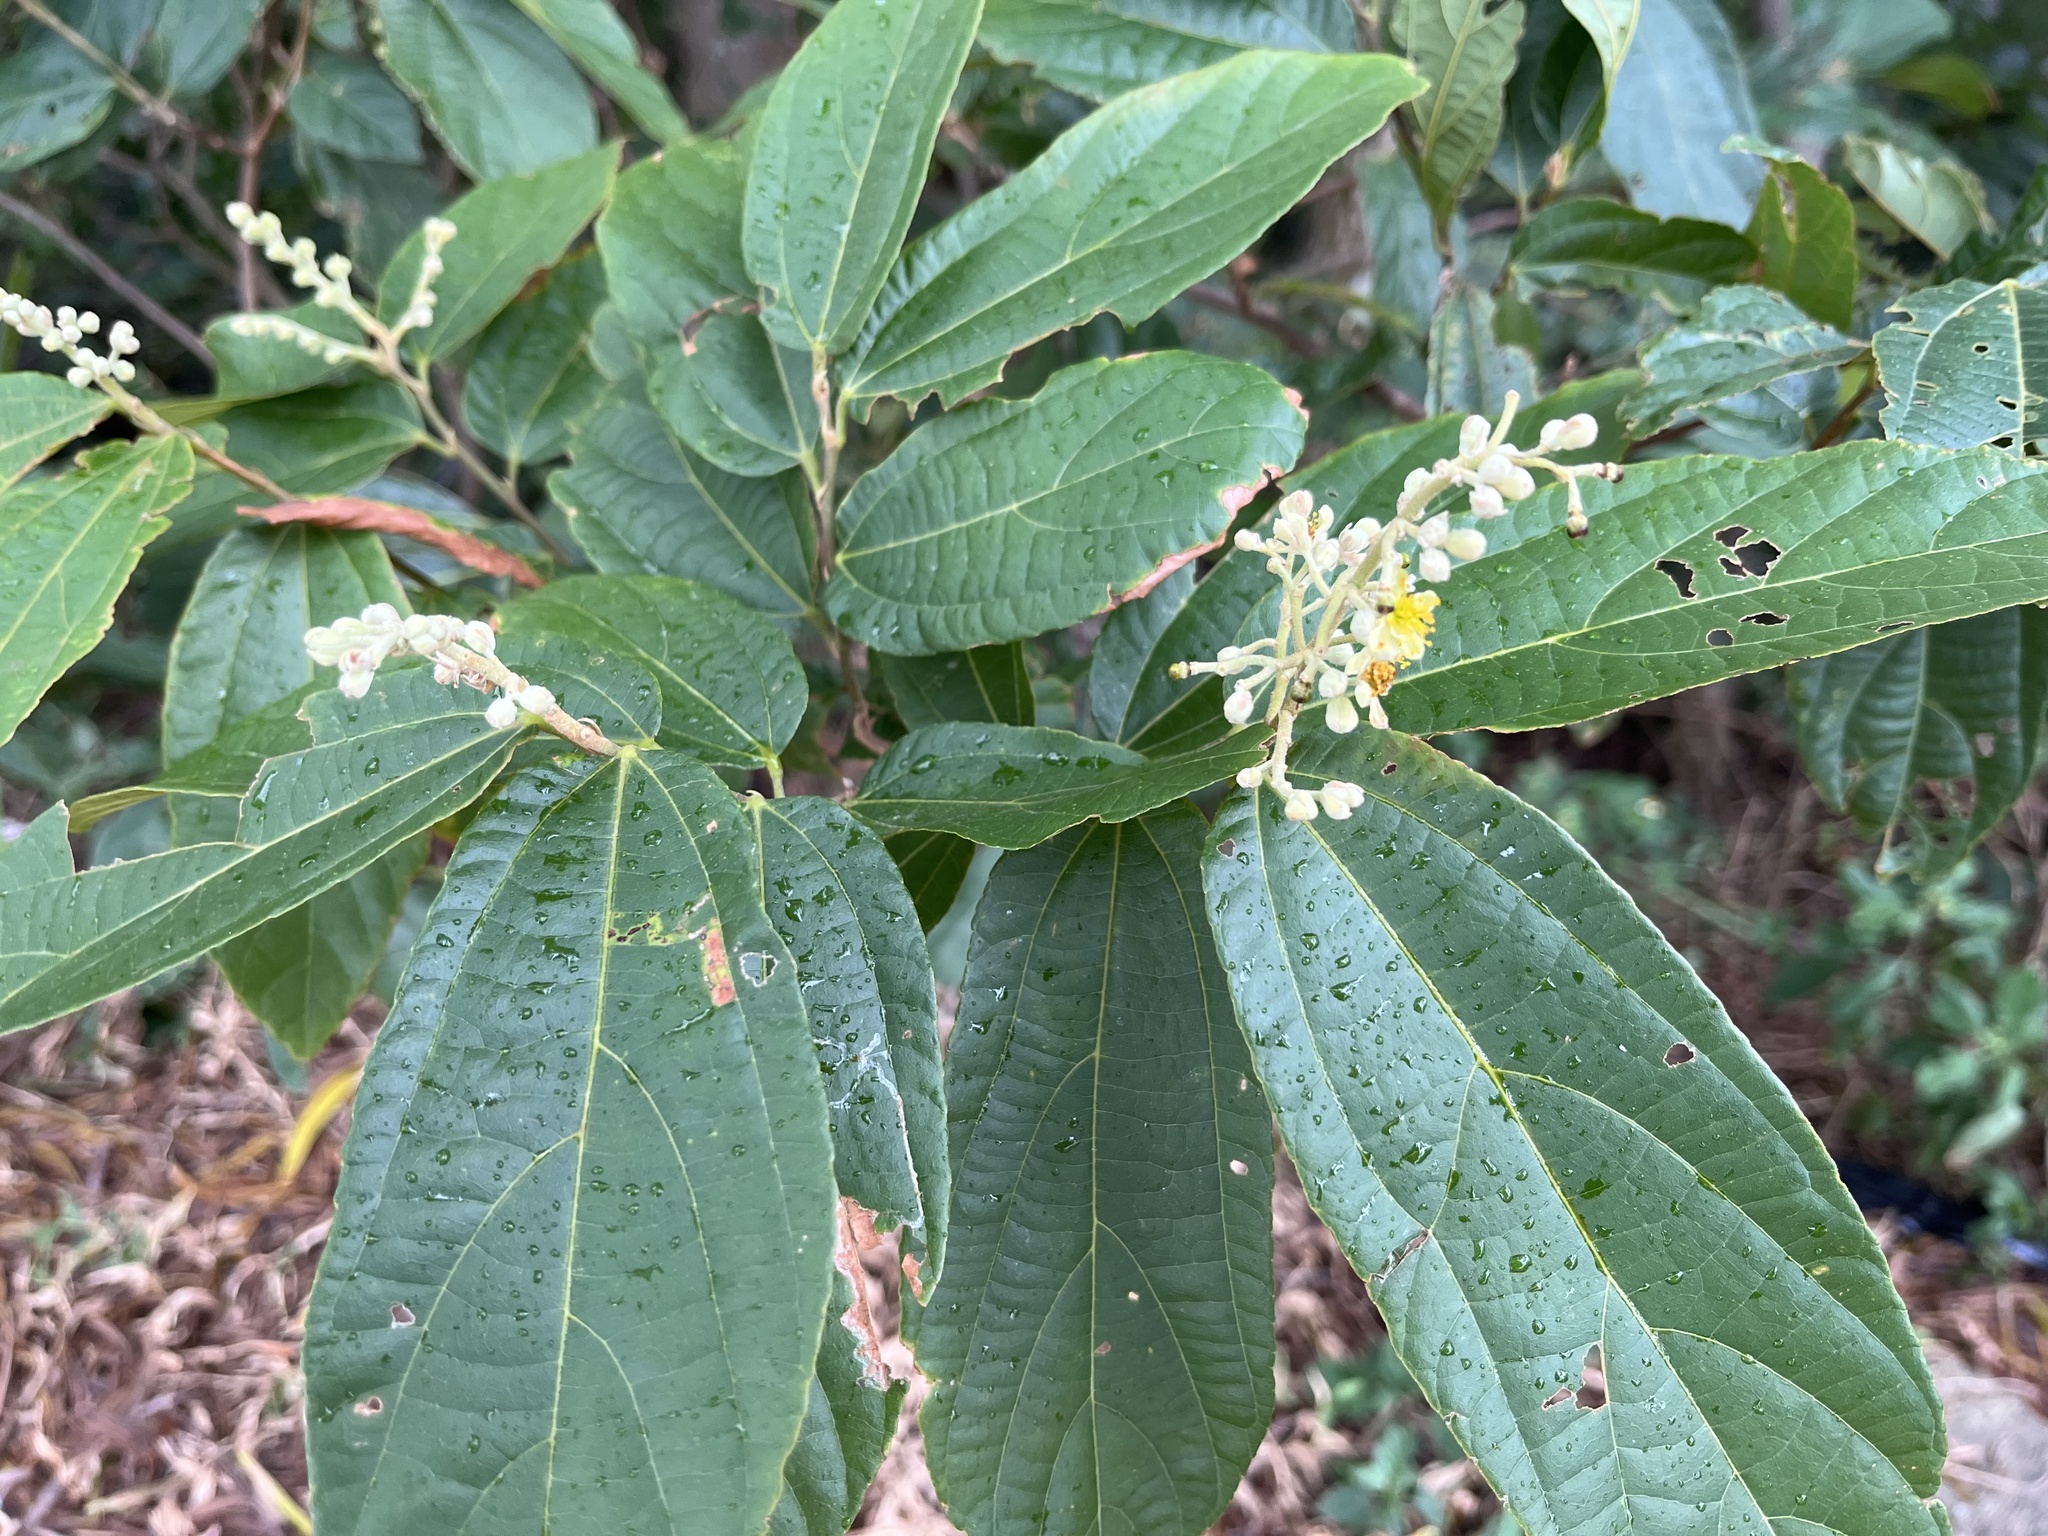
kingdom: Plantae
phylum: Tracheophyta
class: Magnoliopsida
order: Malvales
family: Malvaceae
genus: Microcos
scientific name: Microcos paniculata
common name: Microcos
